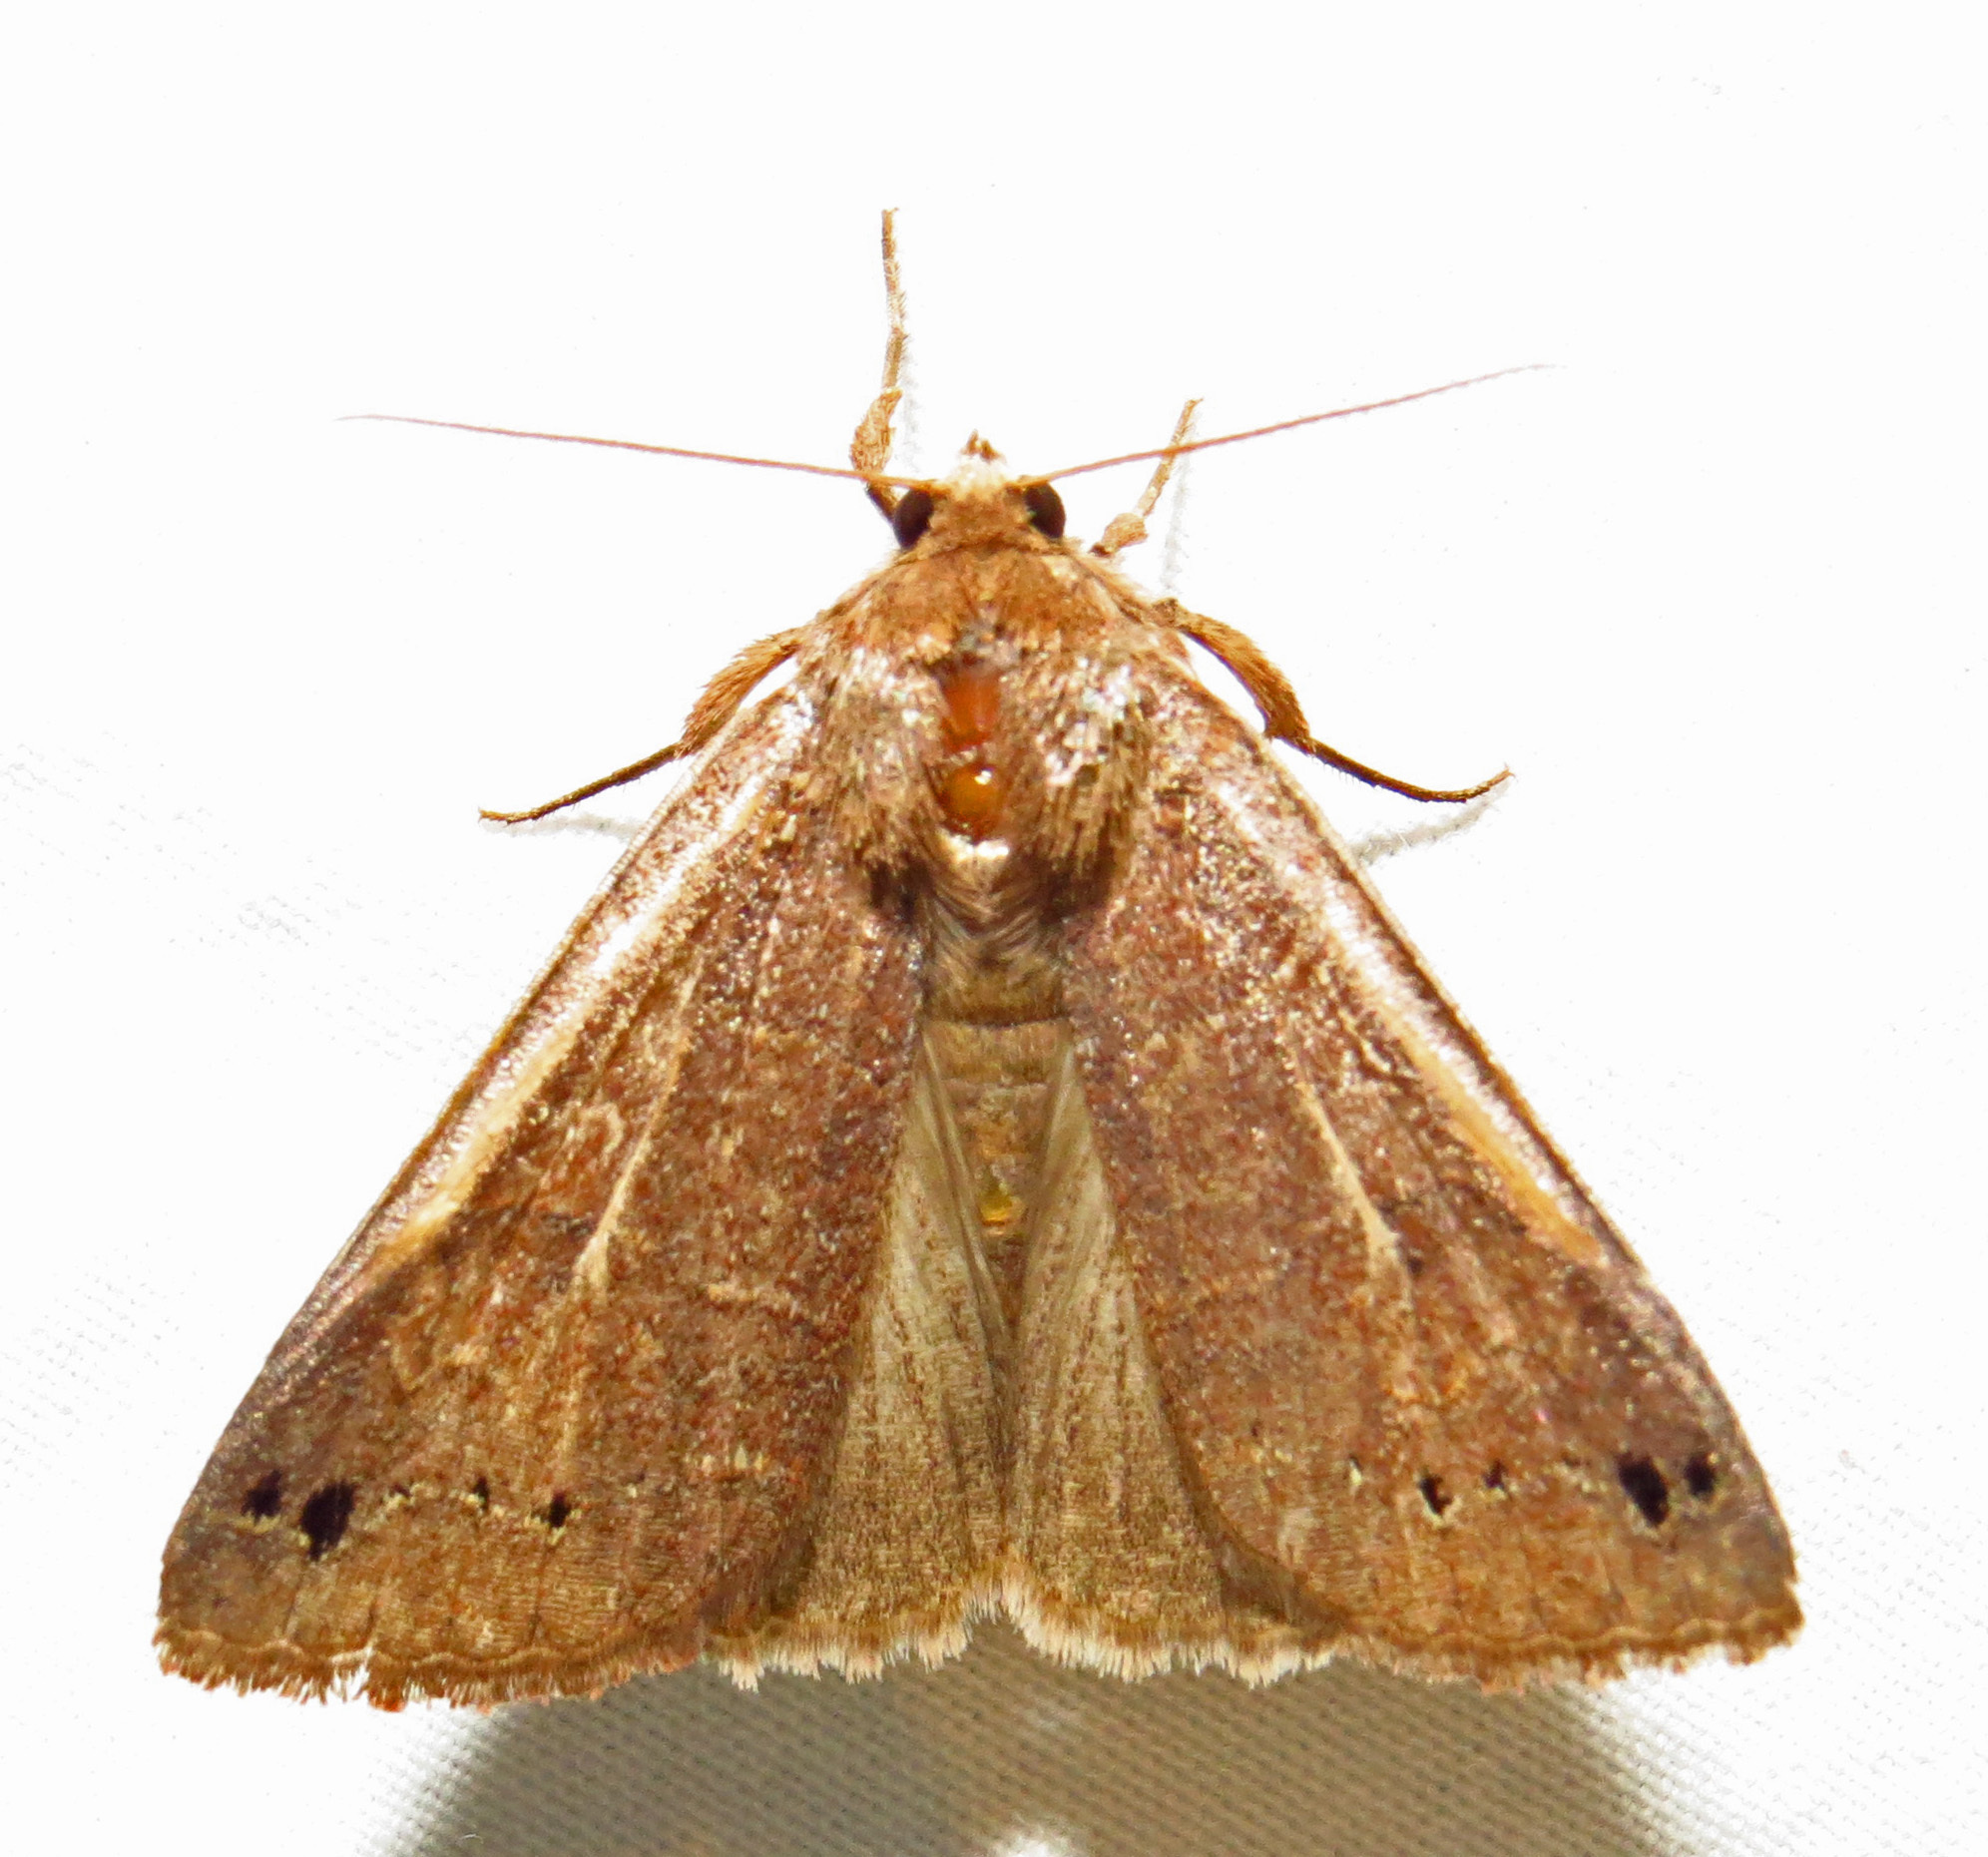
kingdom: Animalia
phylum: Arthropoda
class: Insecta
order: Lepidoptera
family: Erebidae
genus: Cissusa
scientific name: Cissusa spadix
